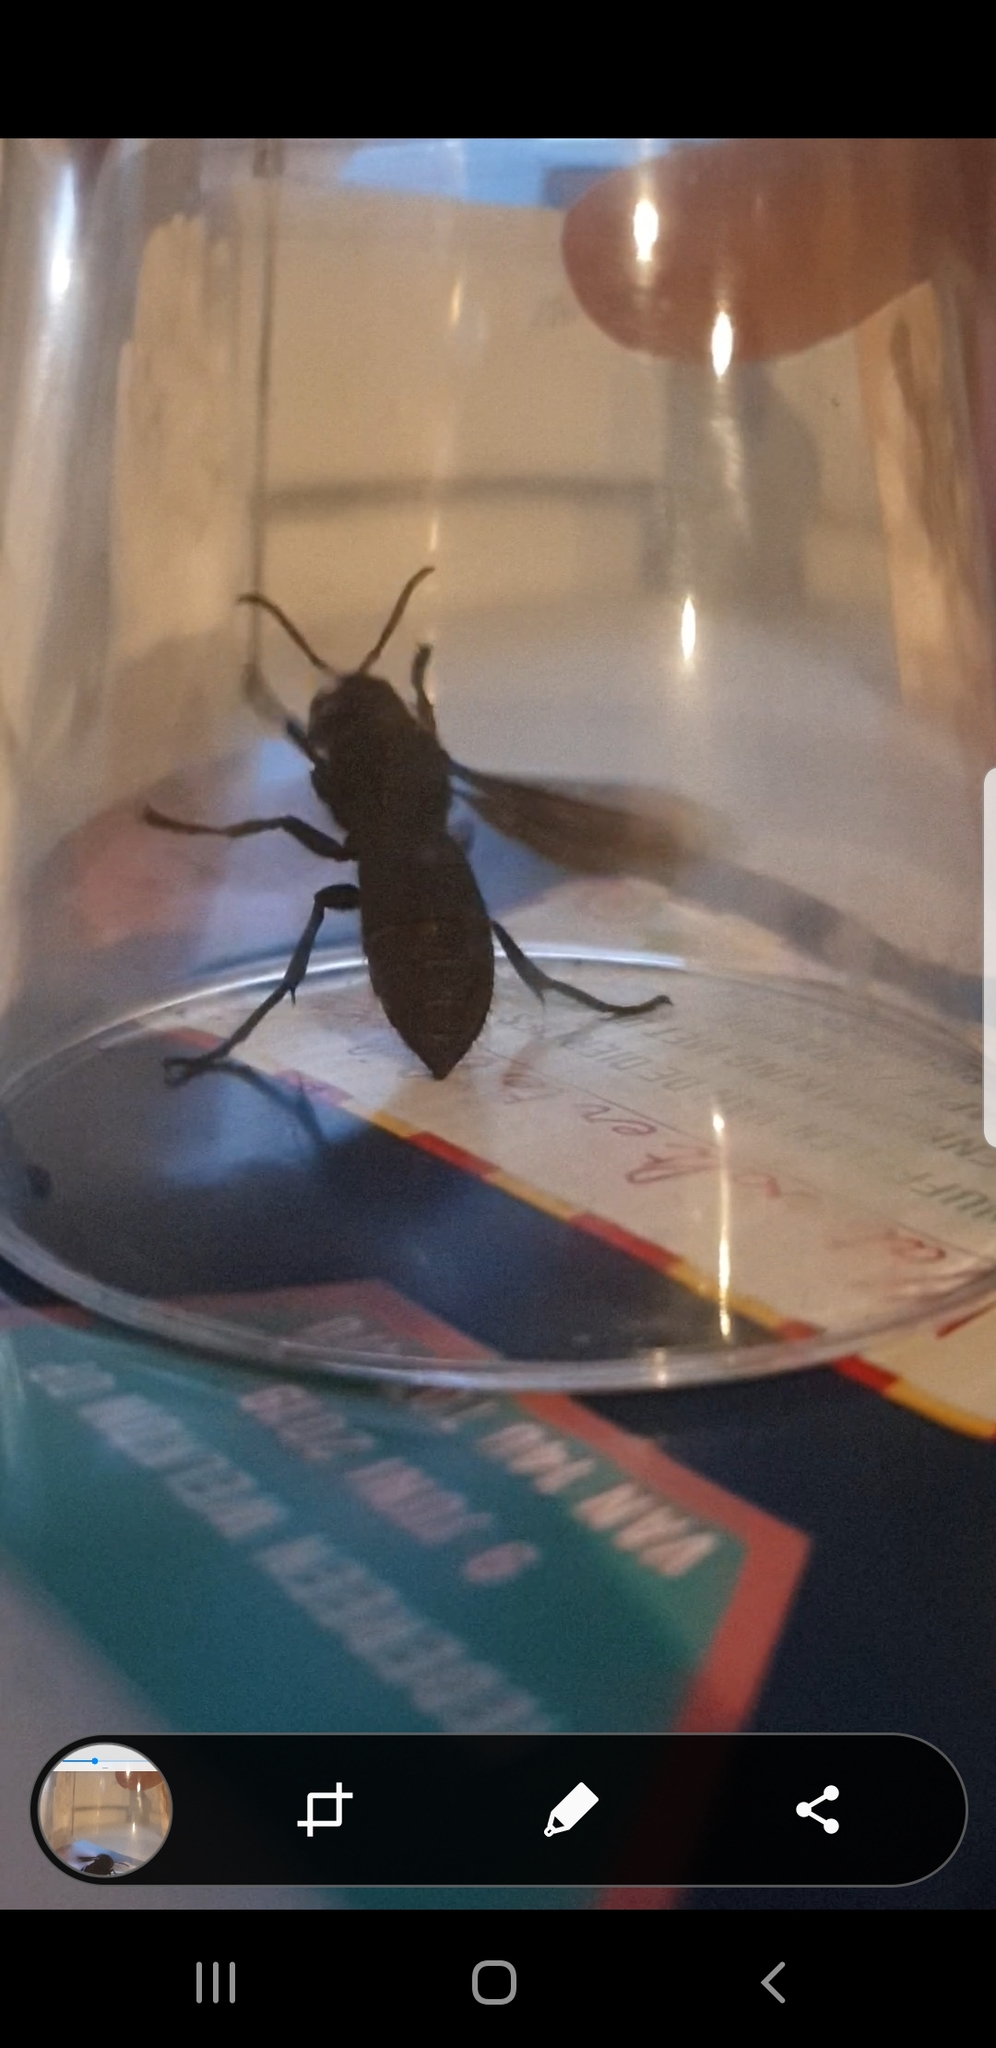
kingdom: Animalia
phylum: Arthropoda
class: Insecta
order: Hymenoptera
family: Vespidae
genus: Vespa
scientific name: Vespa crabro
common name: Hornet
